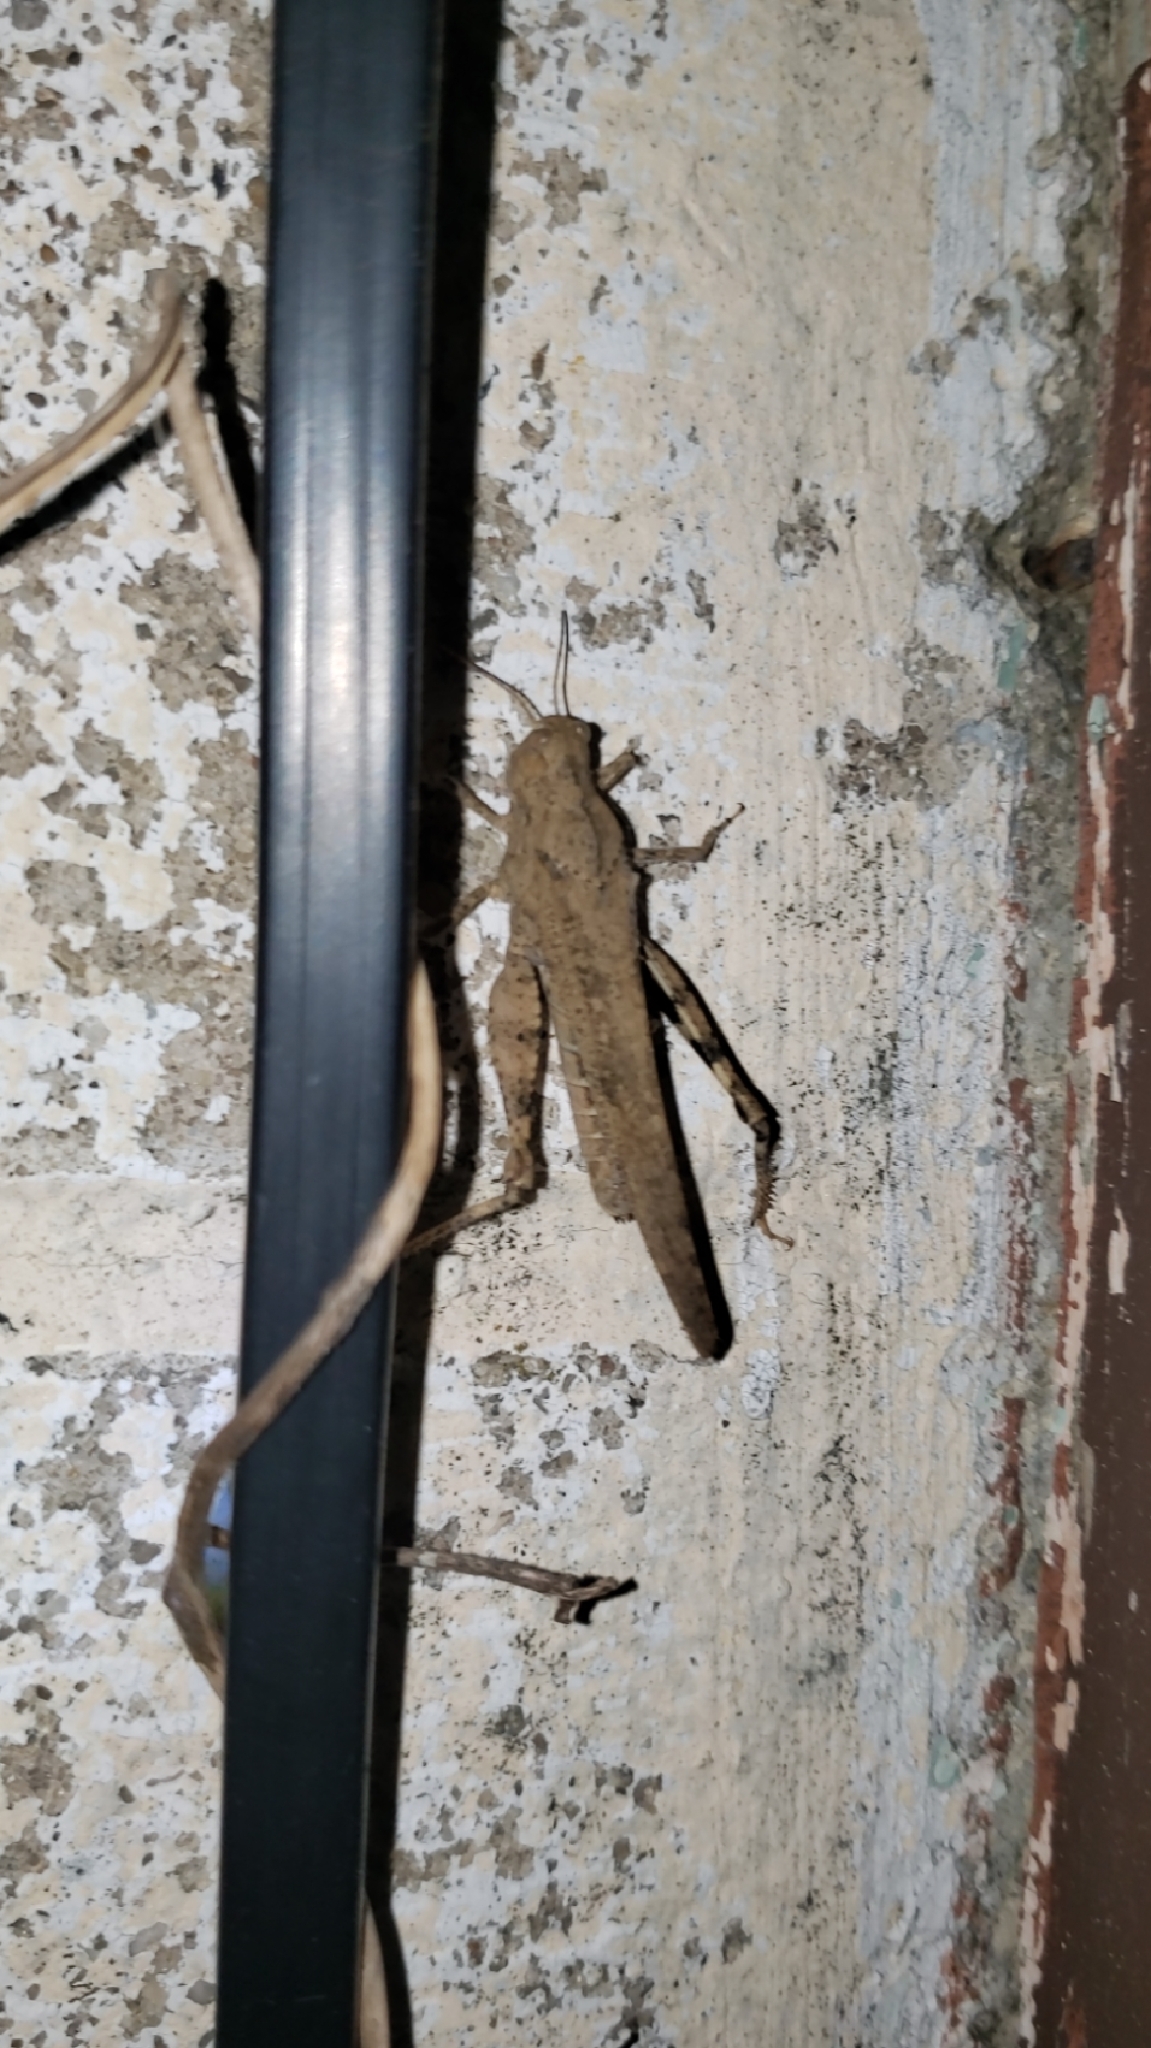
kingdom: Animalia
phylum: Arthropoda
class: Insecta
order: Orthoptera
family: Acrididae
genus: Dissosteira
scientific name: Dissosteira carolina
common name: Carolina grasshopper
